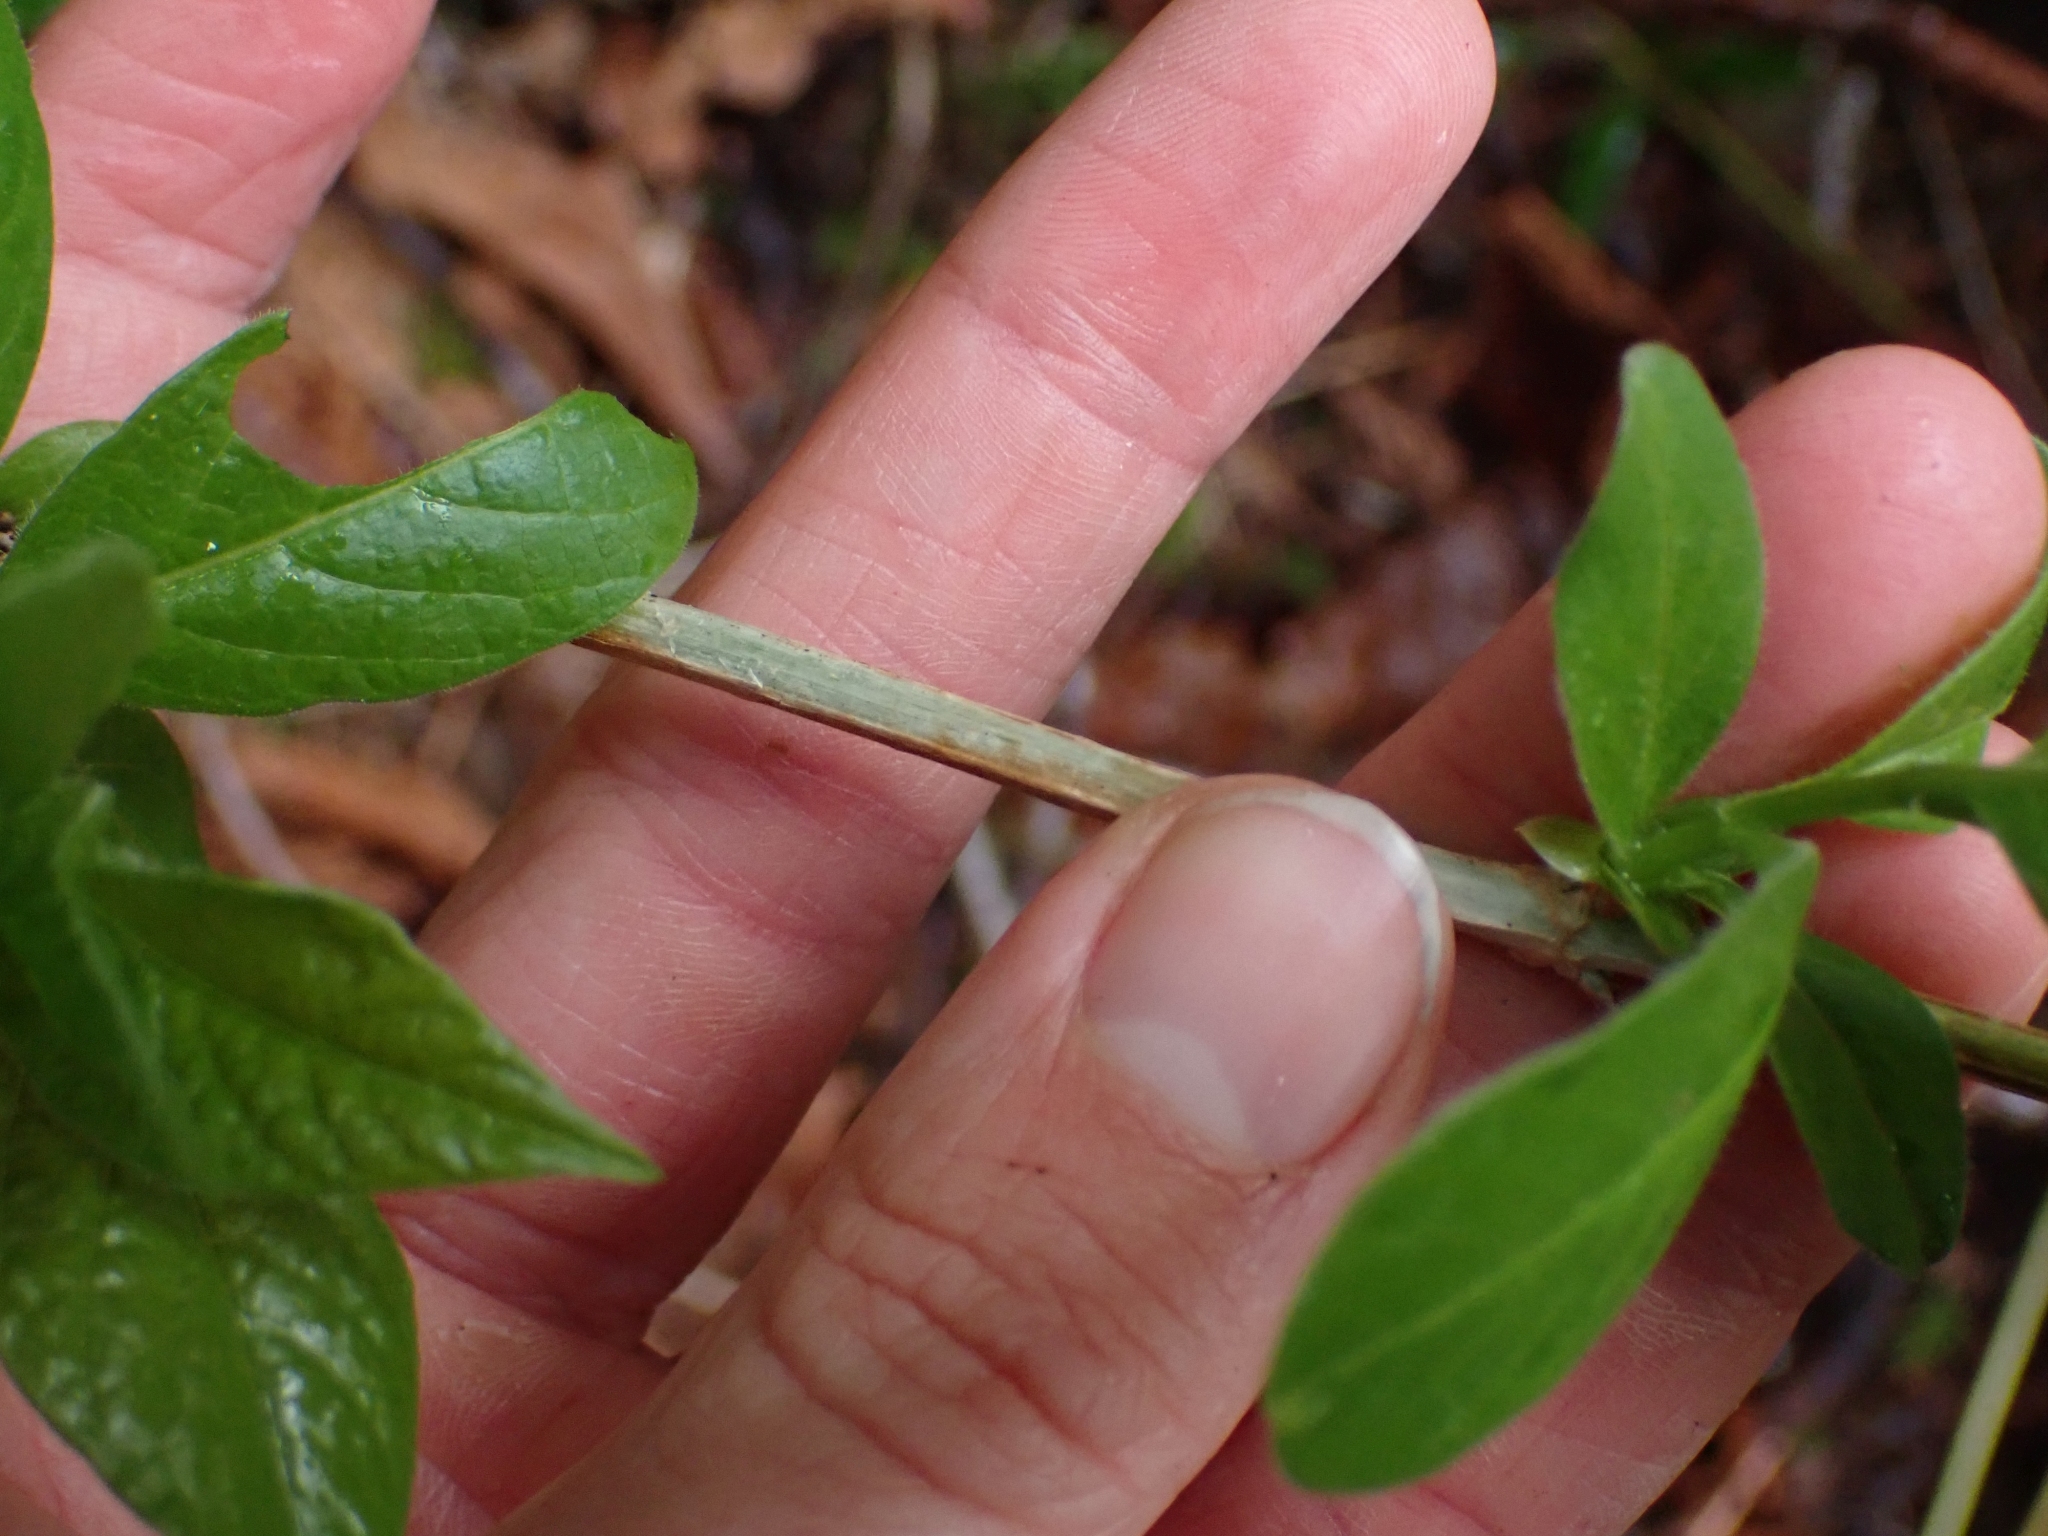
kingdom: Plantae
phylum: Tracheophyta
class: Magnoliopsida
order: Dipsacales
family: Caprifoliaceae
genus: Lonicera
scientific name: Lonicera involucrata
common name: Californian honeysuckle
